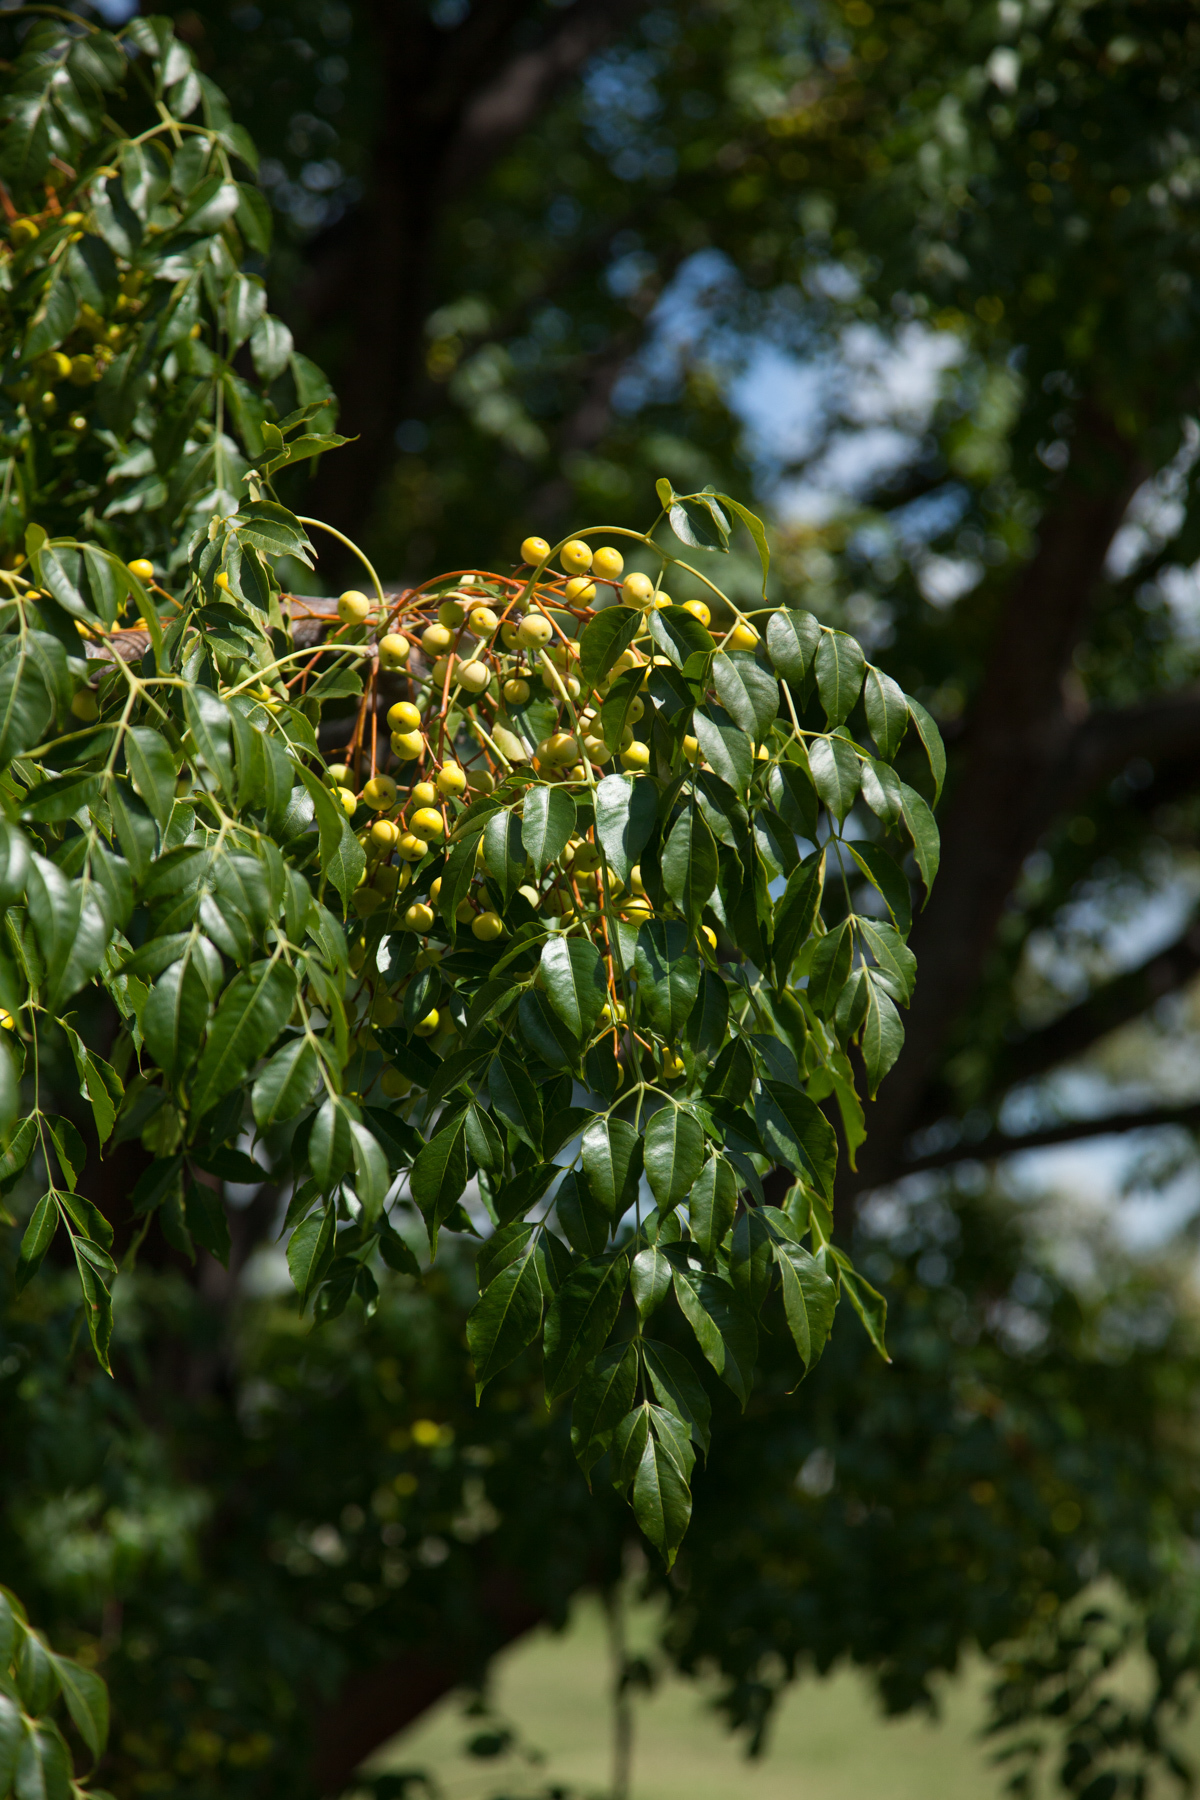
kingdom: Plantae
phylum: Tracheophyta
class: Magnoliopsida
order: Sapindales
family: Meliaceae
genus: Melia
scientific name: Melia azedarach
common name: Chinaberrytree
